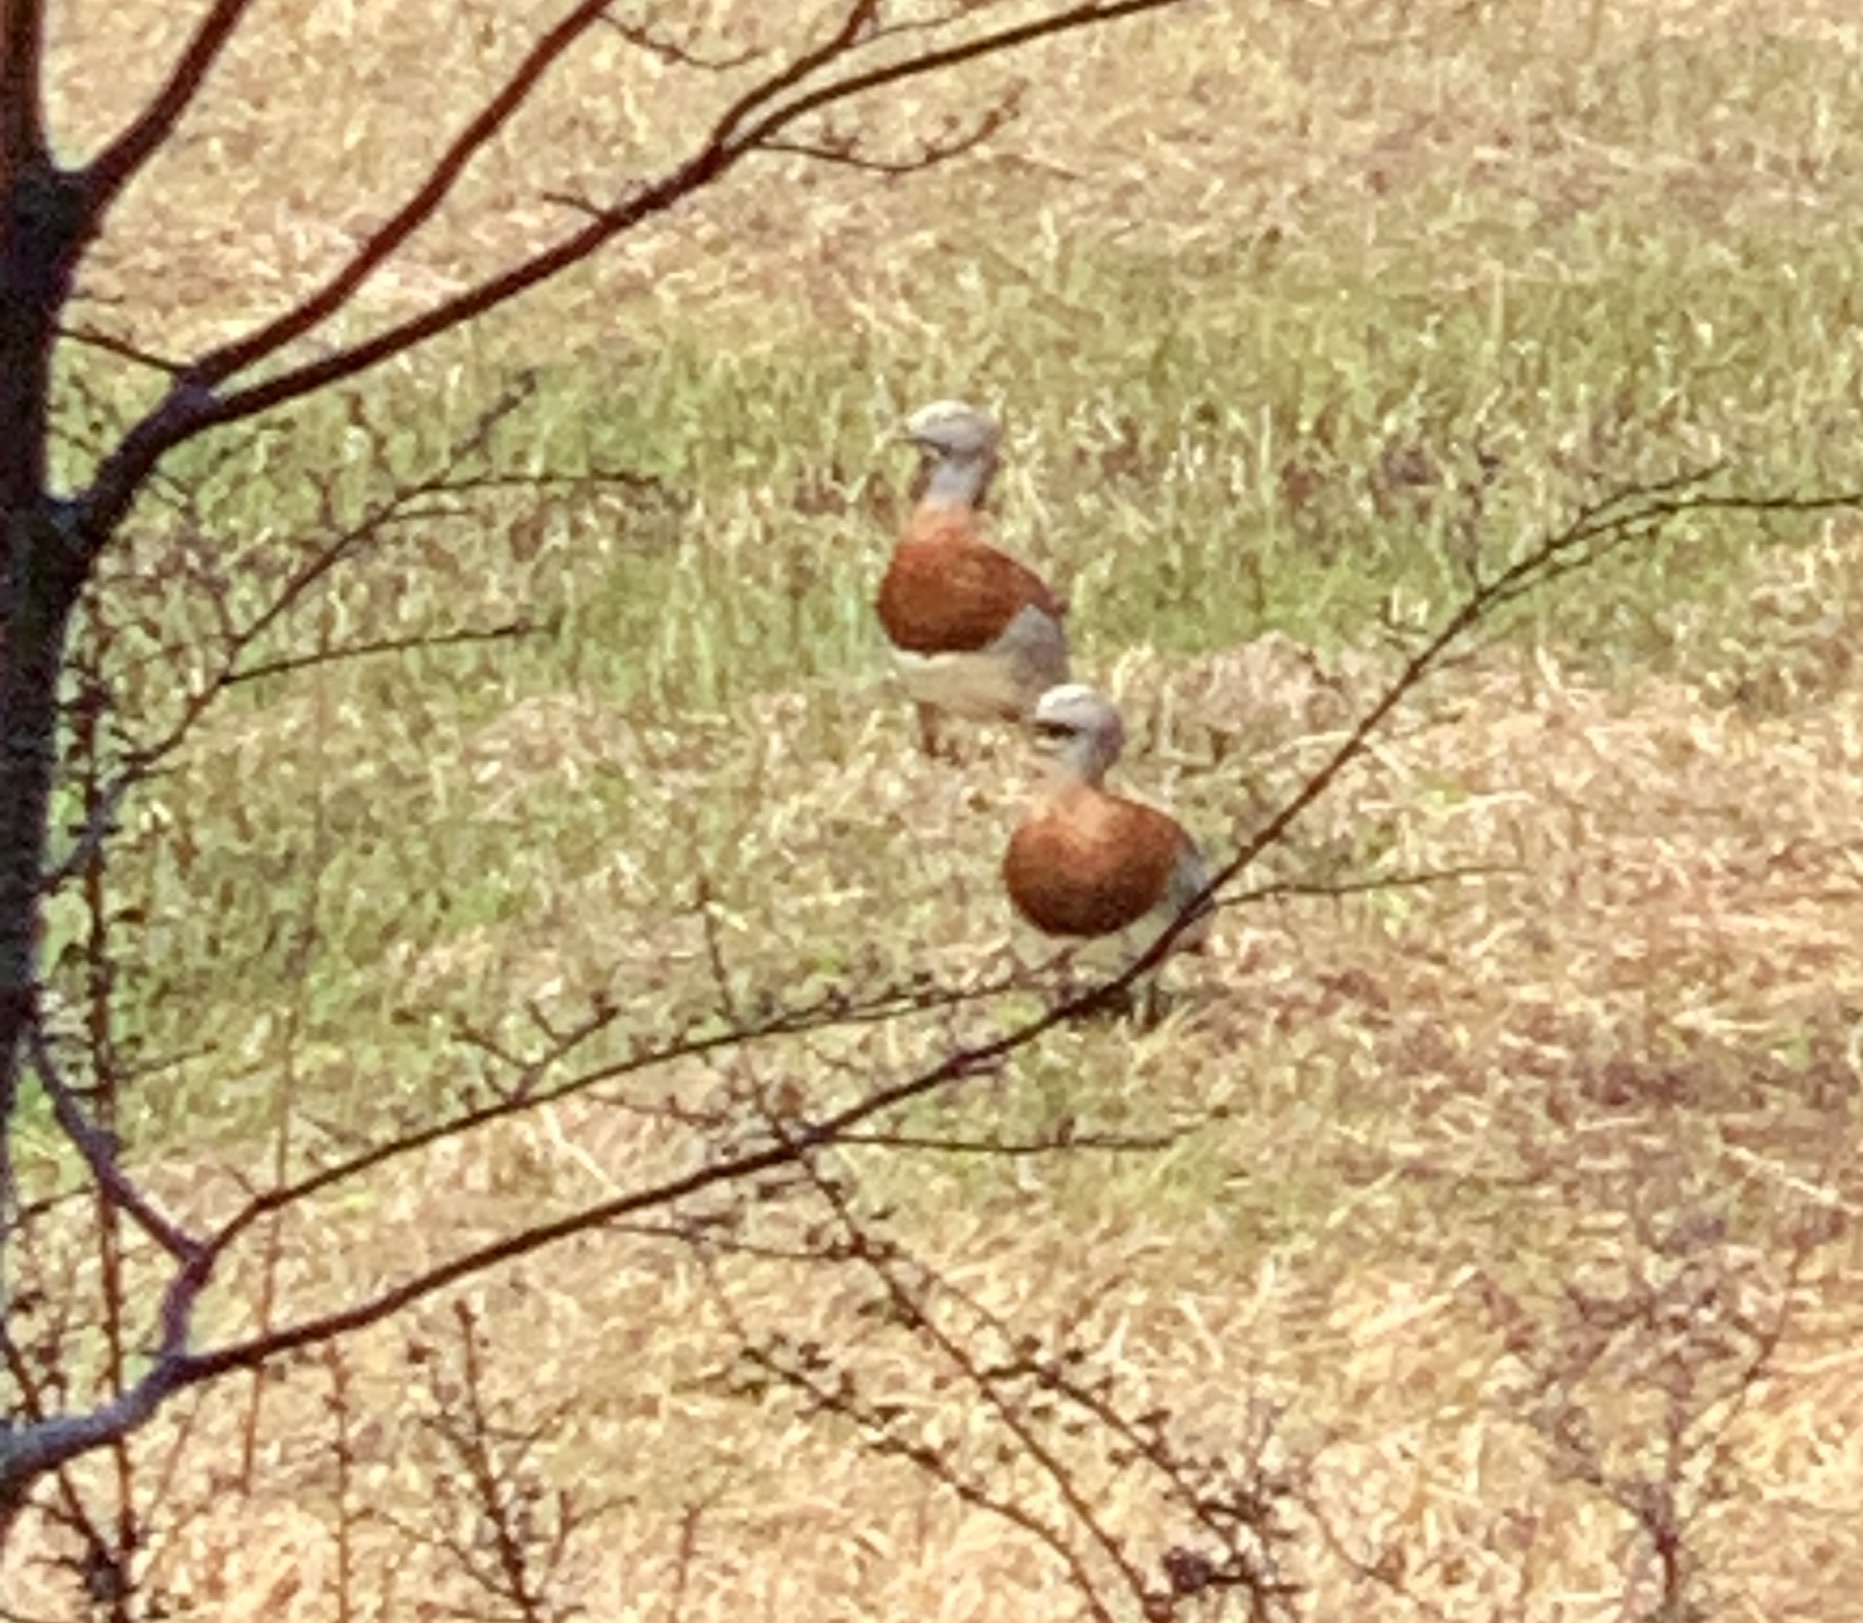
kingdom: Animalia
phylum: Chordata
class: Aves
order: Anseriformes
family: Anatidae
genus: Chloephaga
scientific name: Chloephaga poliocephala
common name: Ashy-headed goose
